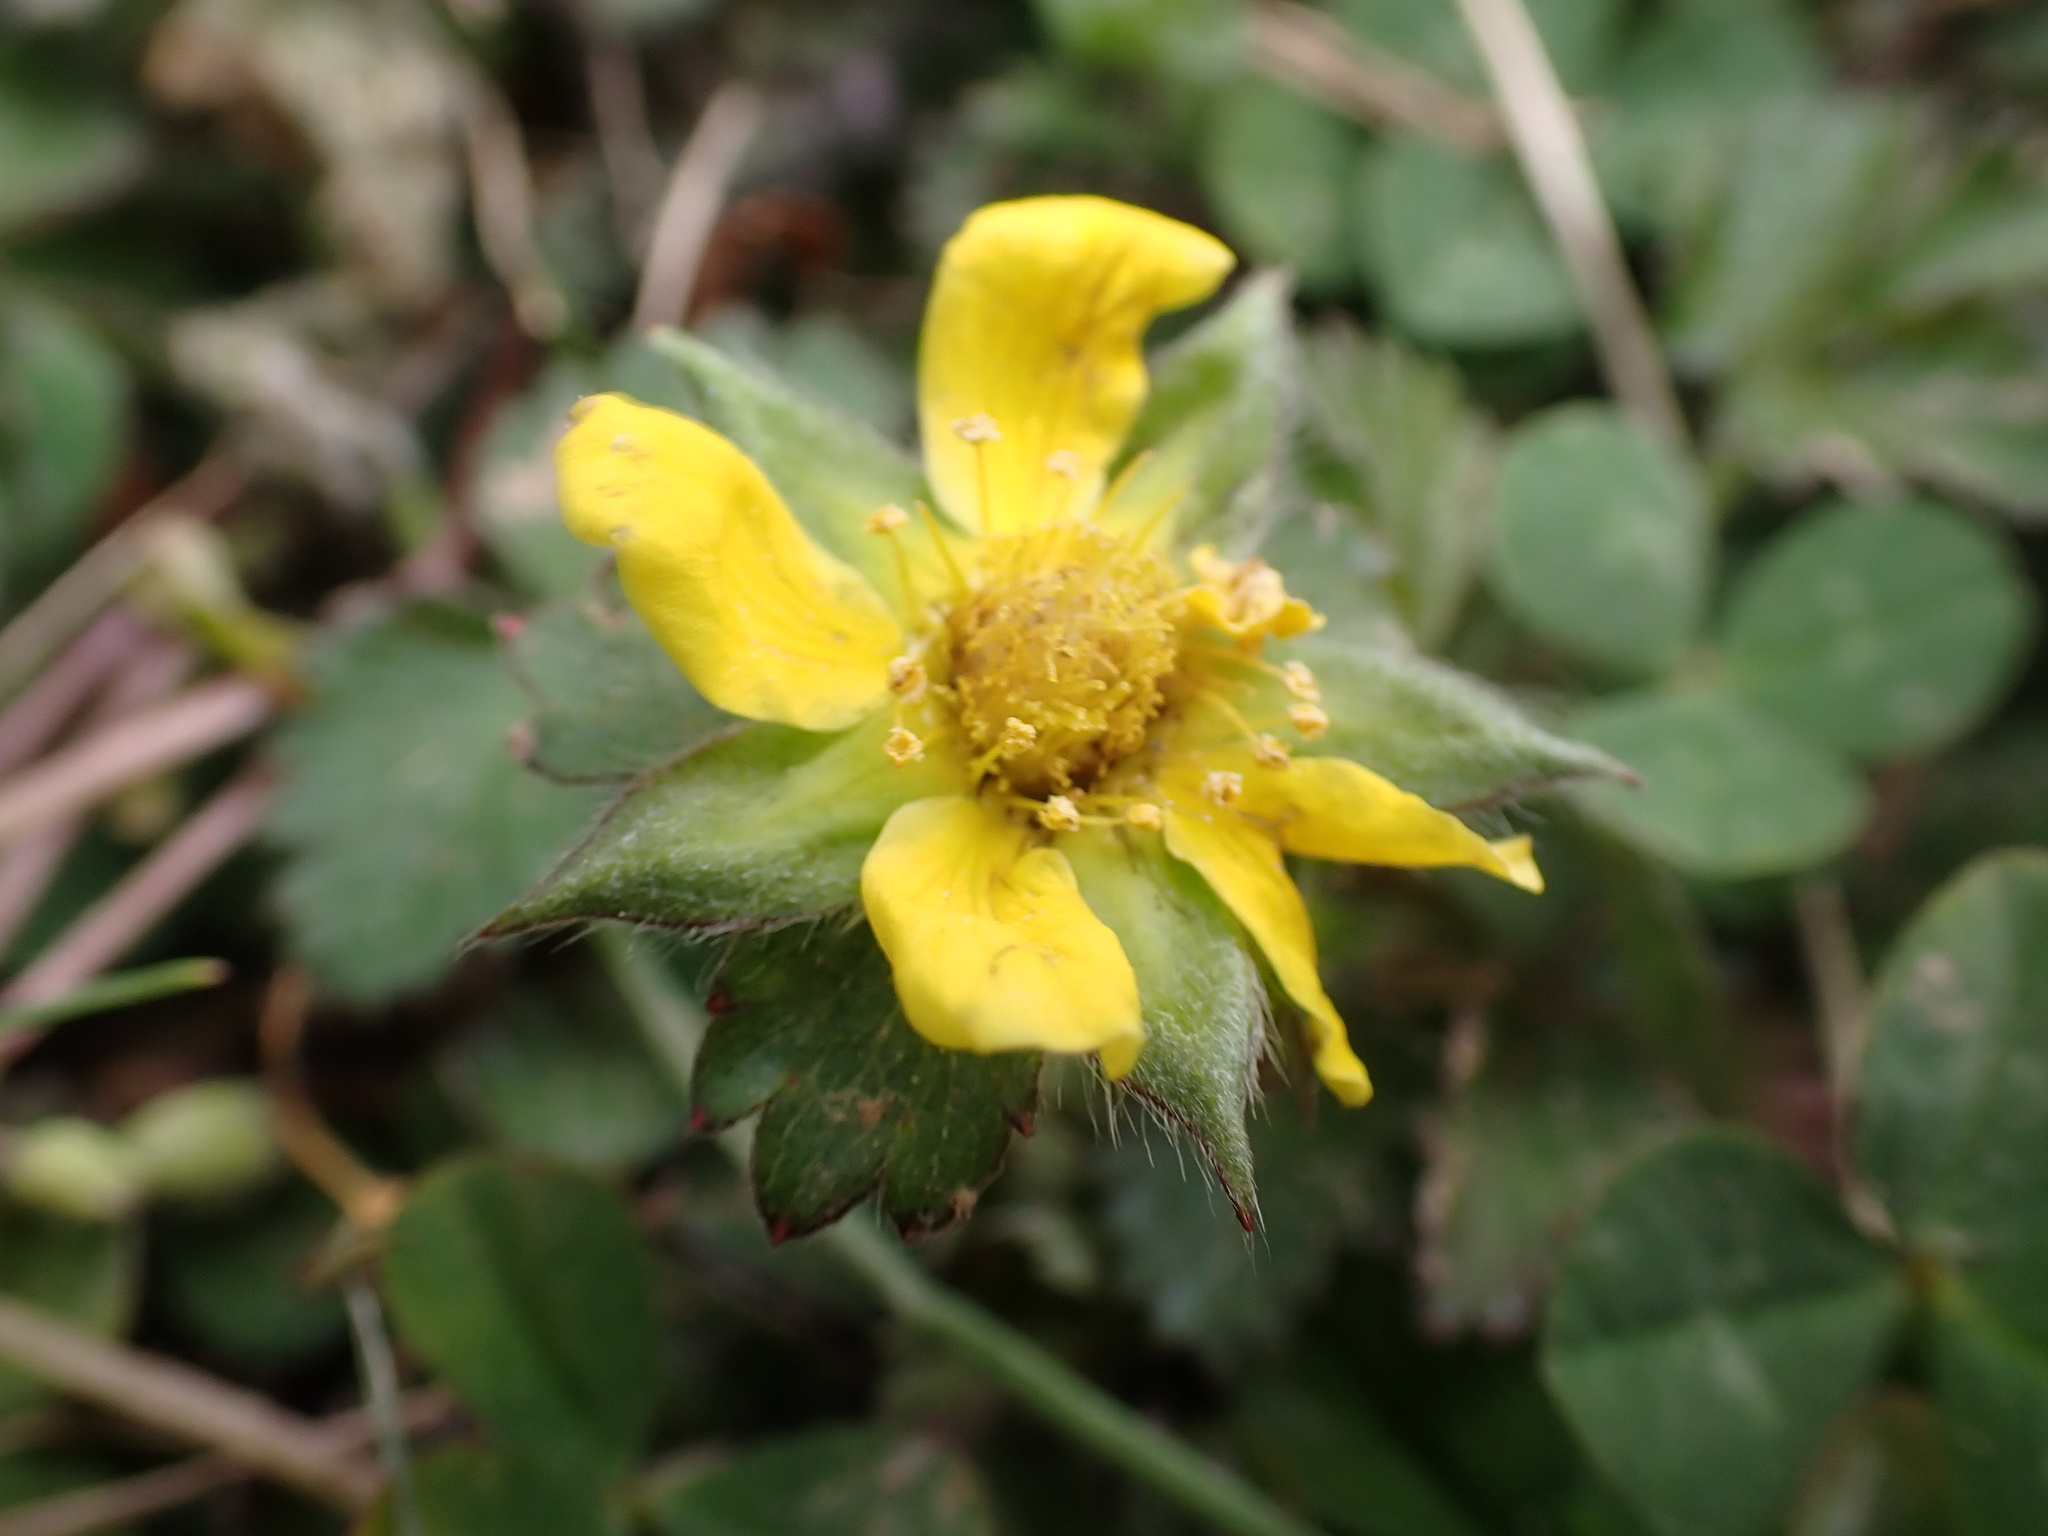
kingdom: Plantae
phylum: Tracheophyta
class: Magnoliopsida
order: Rosales
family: Rosaceae
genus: Potentilla
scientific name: Potentilla indica
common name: Yellow-flowered strawberry
